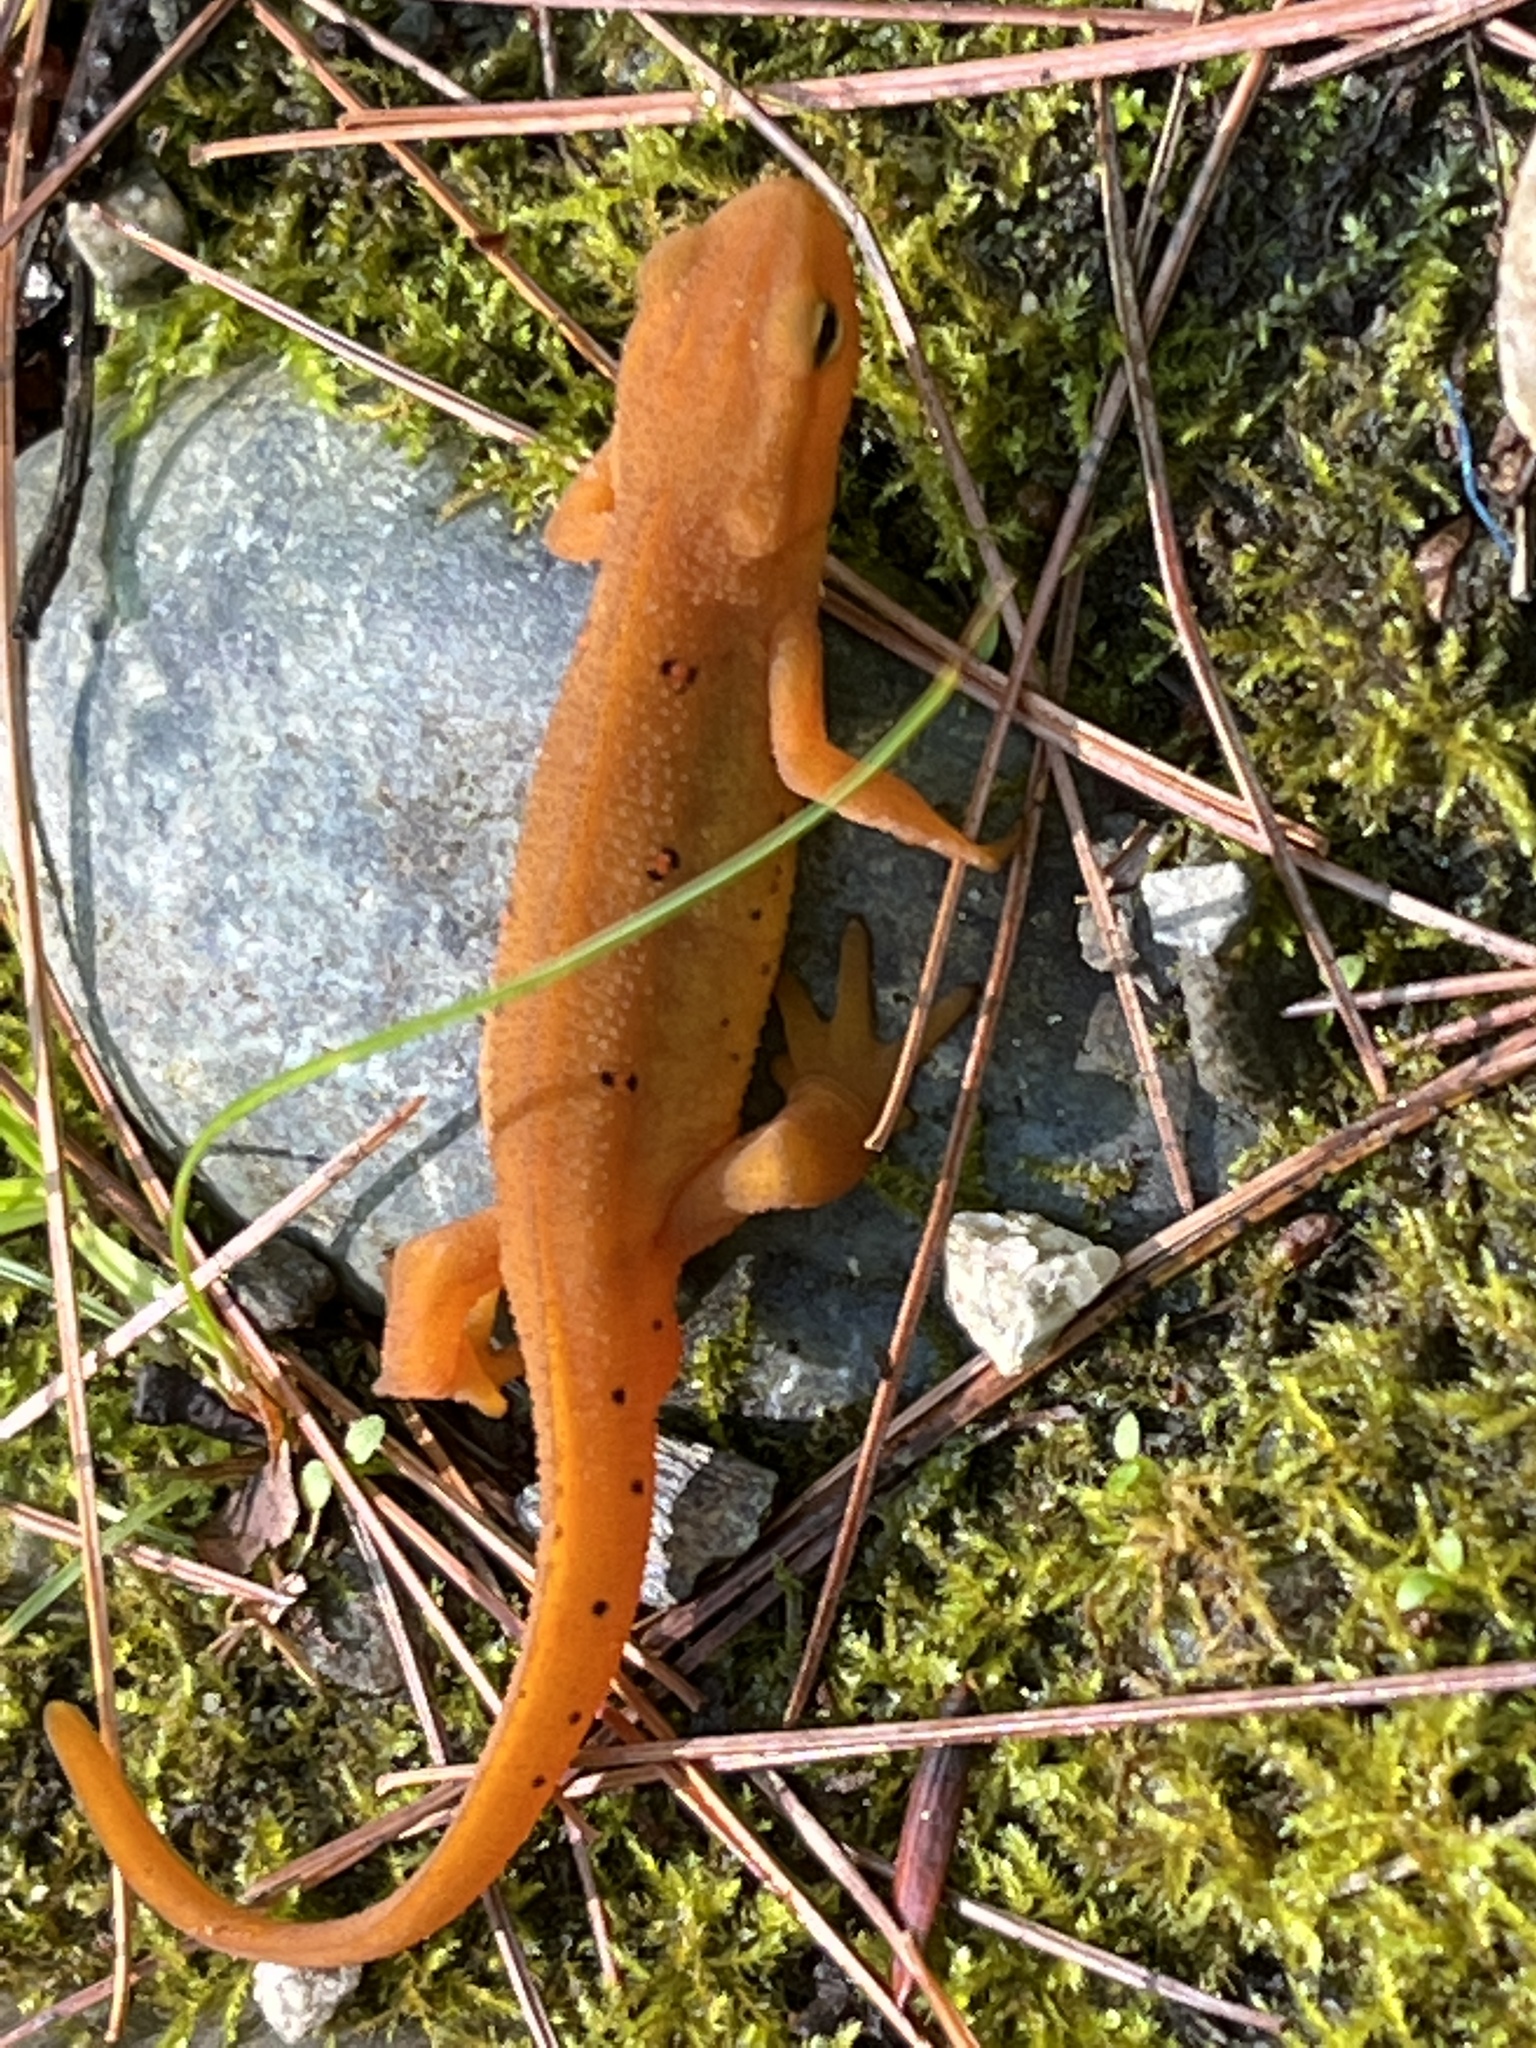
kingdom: Animalia
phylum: Chordata
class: Amphibia
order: Caudata
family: Salamandridae
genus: Notophthalmus
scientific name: Notophthalmus viridescens
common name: Eastern newt
